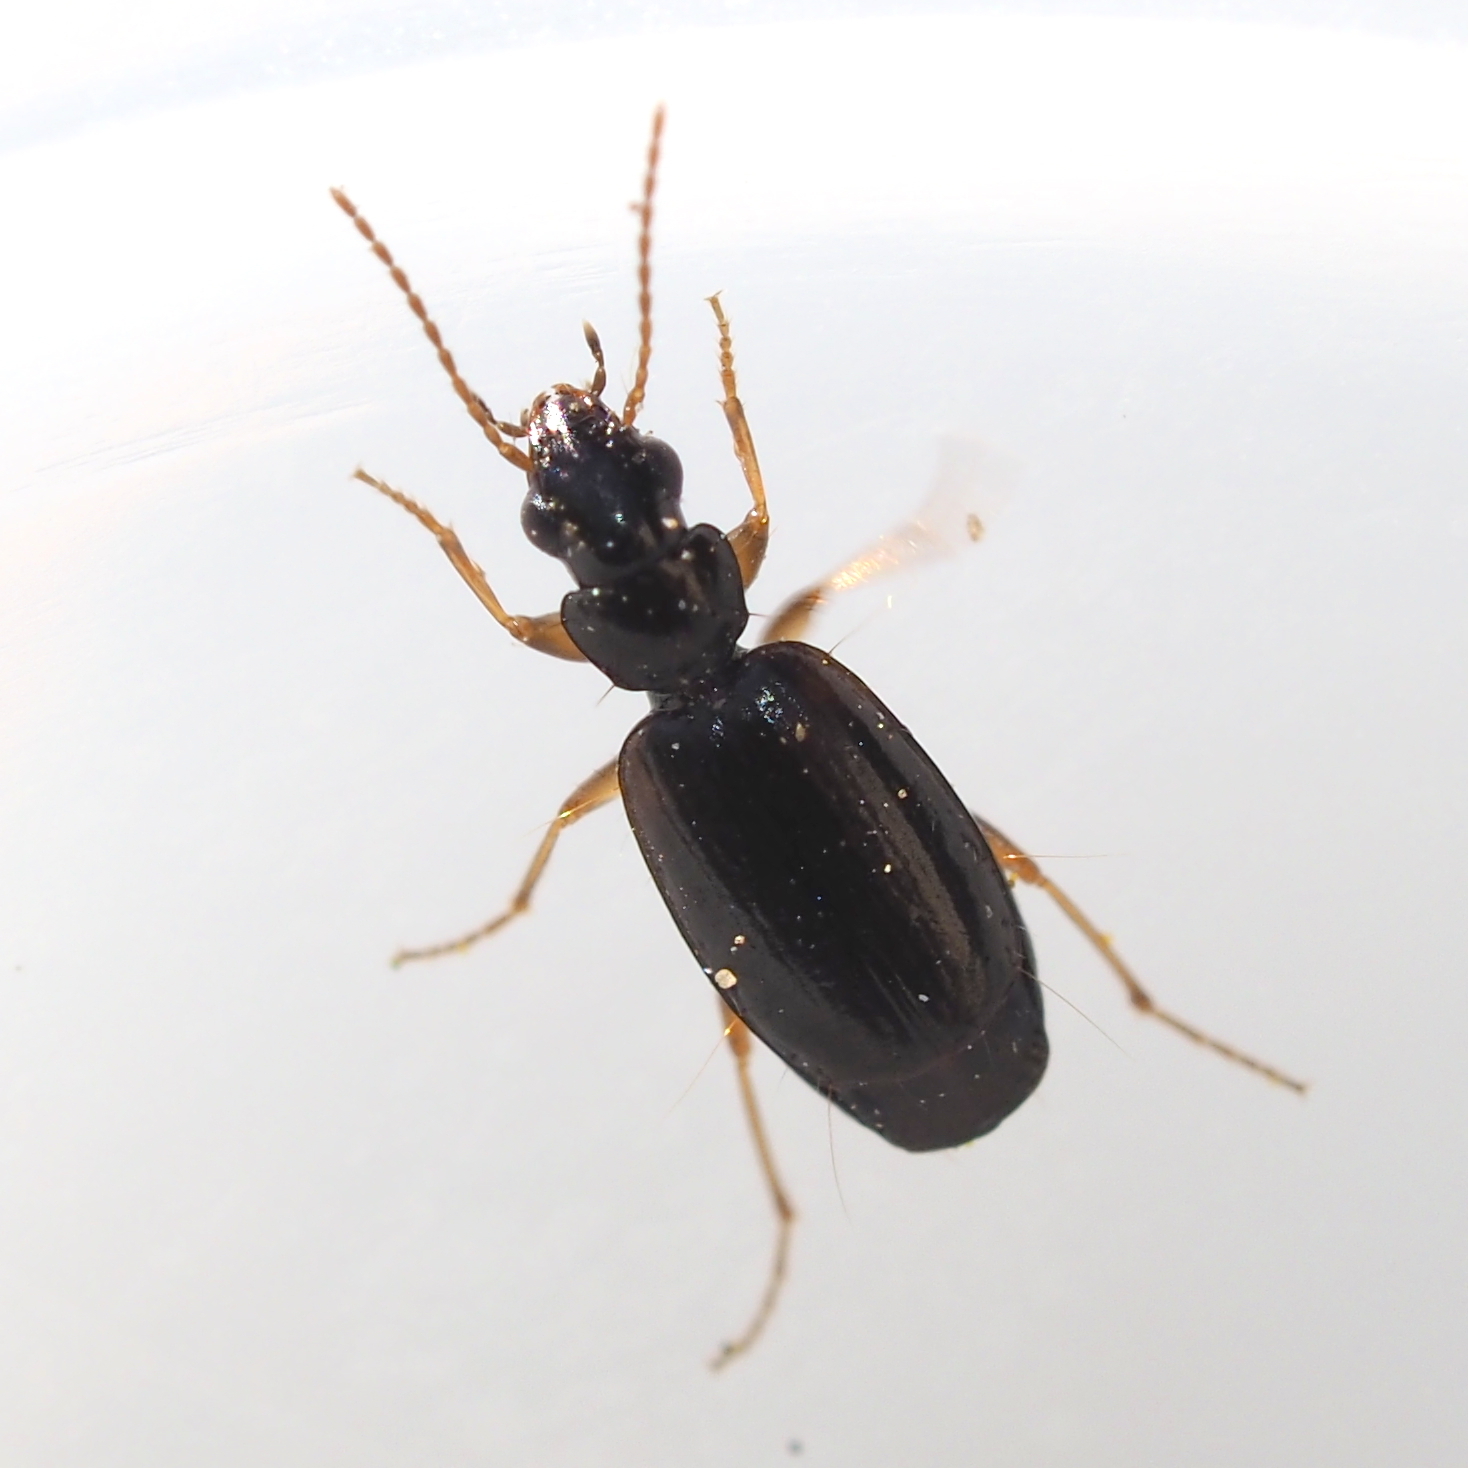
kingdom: Animalia
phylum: Arthropoda
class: Insecta
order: Coleoptera
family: Carabidae
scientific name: Carabidae
